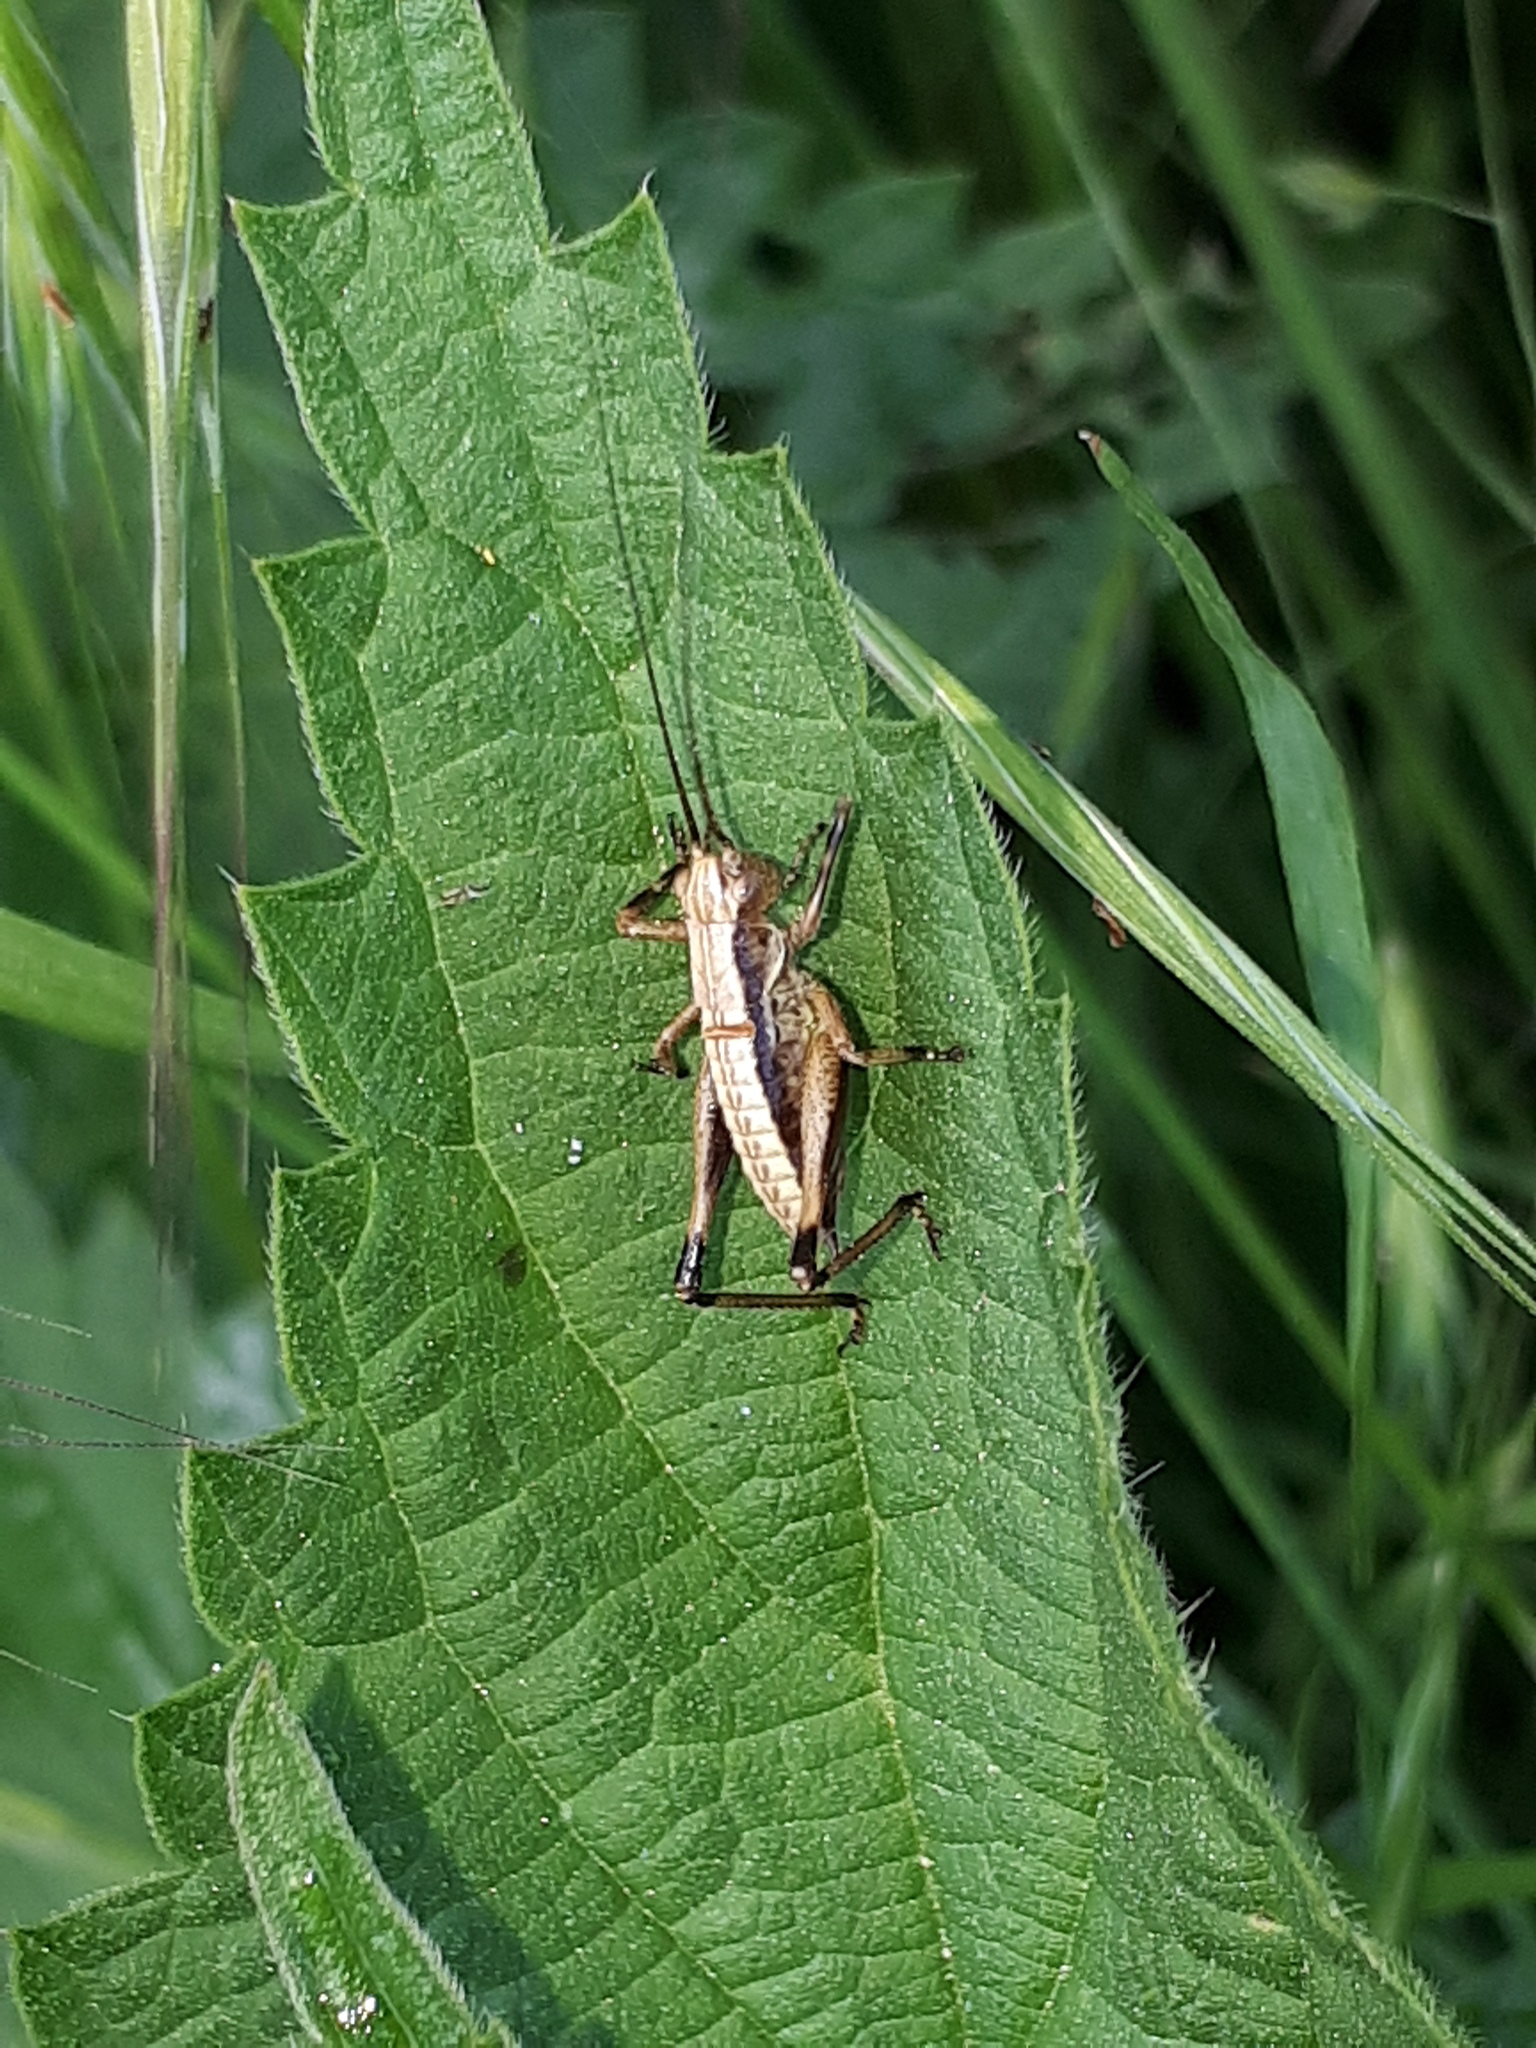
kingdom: Animalia
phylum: Arthropoda
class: Insecta
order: Orthoptera
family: Tettigoniidae
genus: Pholidoptera
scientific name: Pholidoptera griseoaptera
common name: Dark bush-cricket
